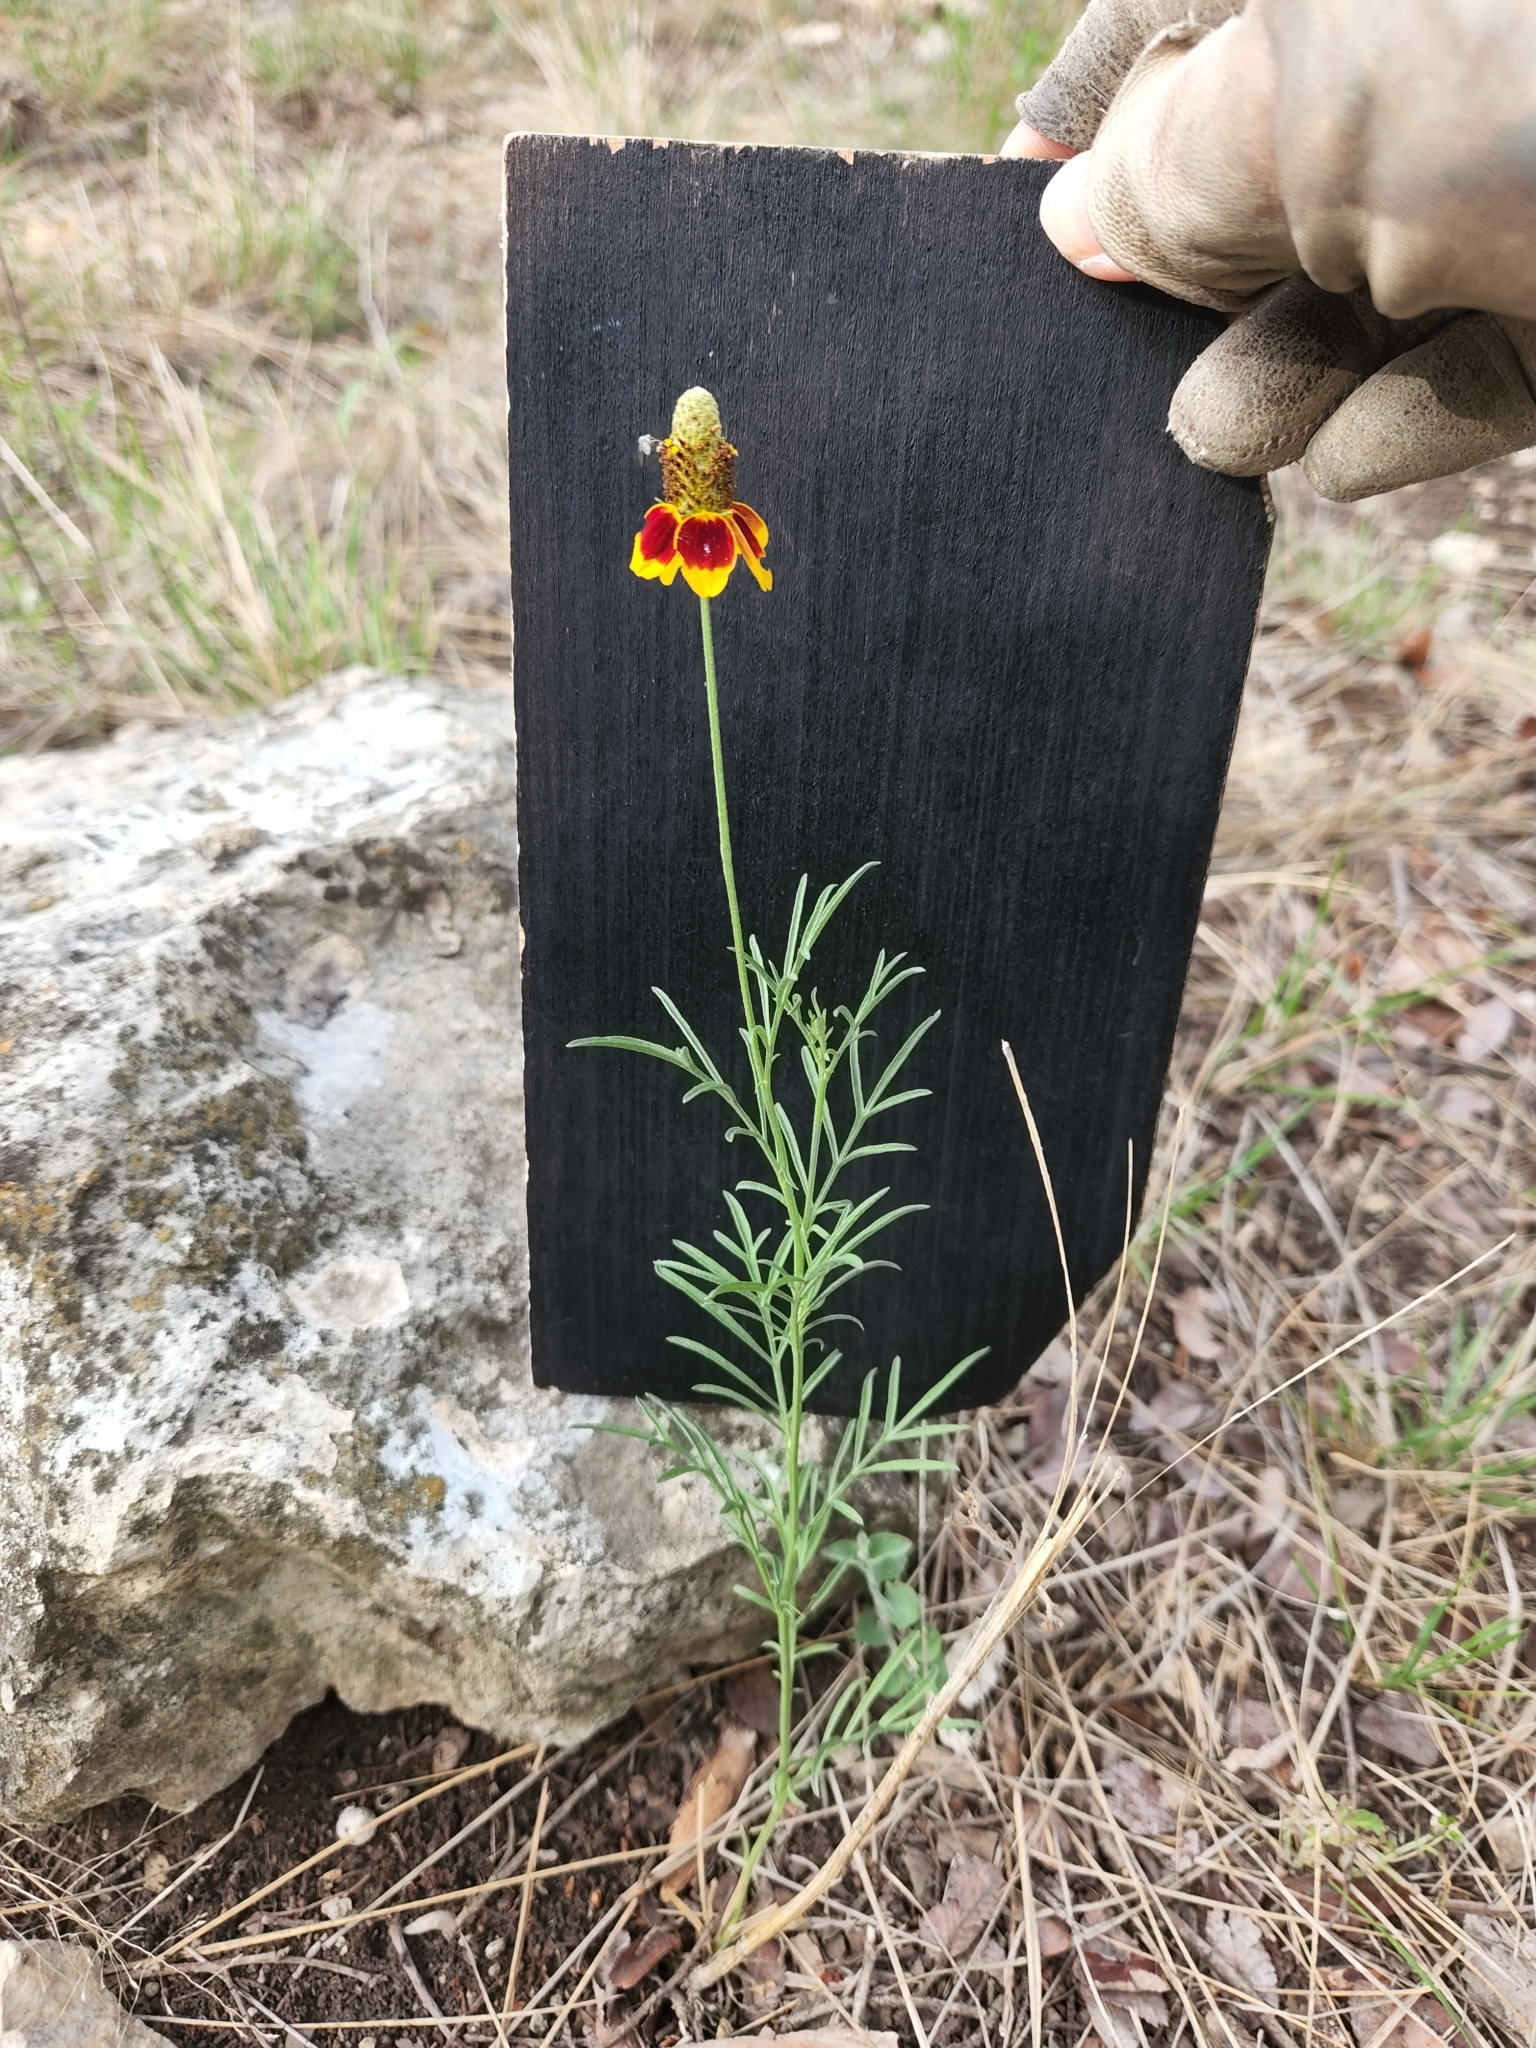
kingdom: Plantae
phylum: Tracheophyta
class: Magnoliopsida
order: Asterales
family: Asteraceae
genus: Ratibida
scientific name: Ratibida columnifera
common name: Prairie coneflower
